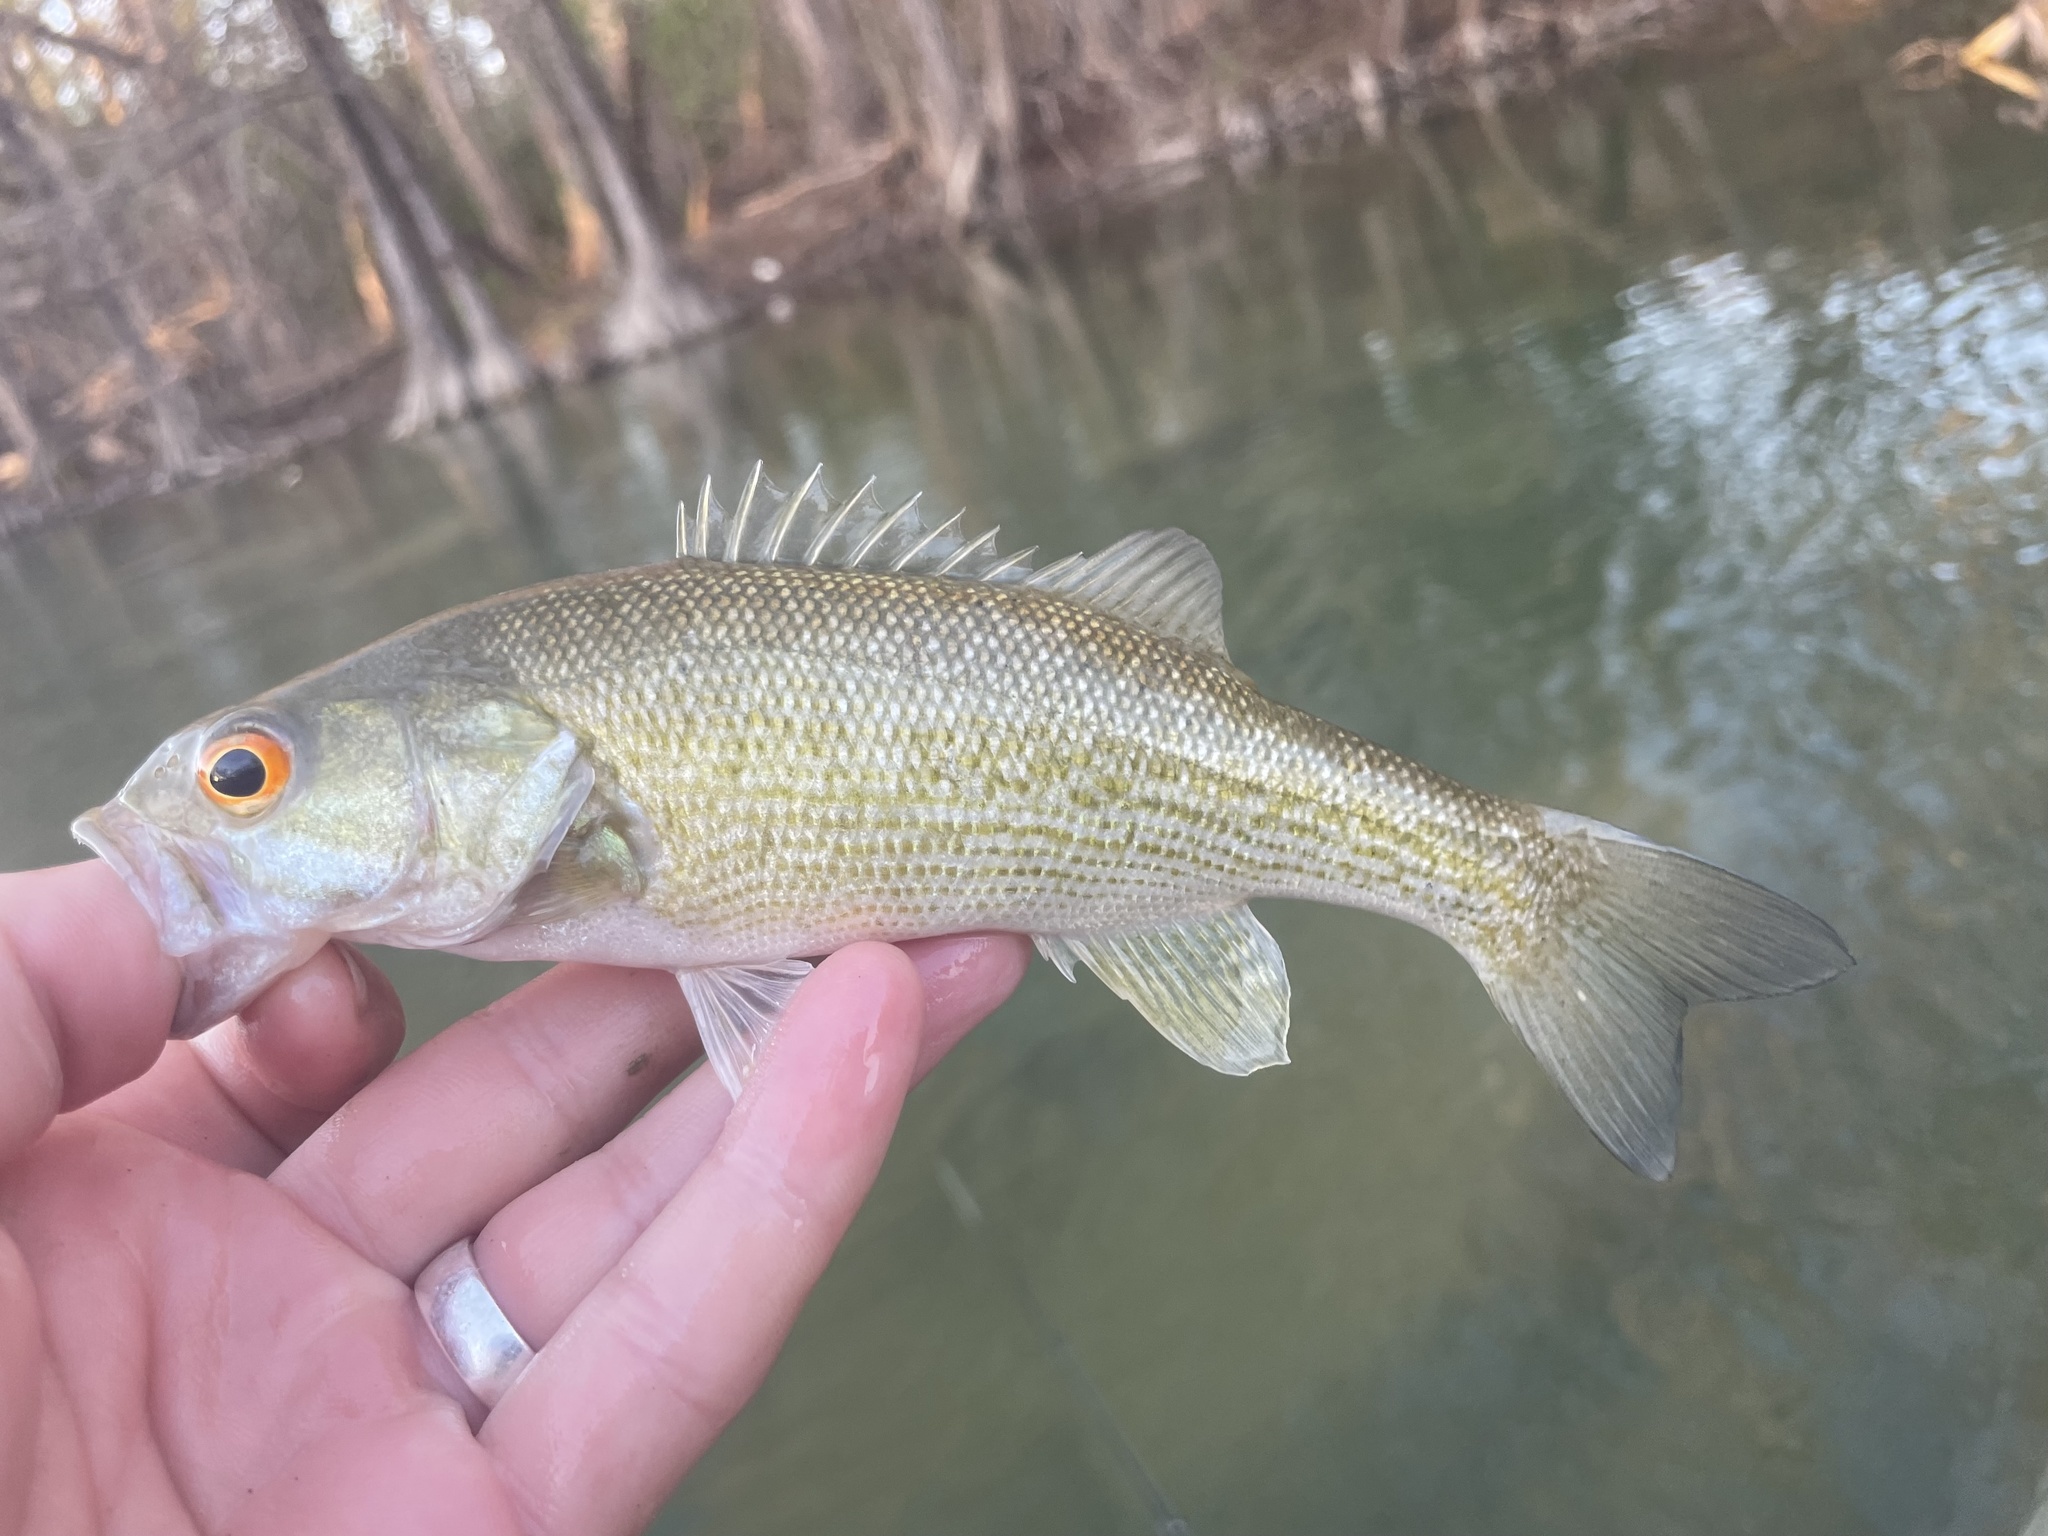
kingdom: Animalia
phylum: Chordata
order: Perciformes
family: Centrarchidae
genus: Micropterus
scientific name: Micropterus treculii
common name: Guadalupe bass
